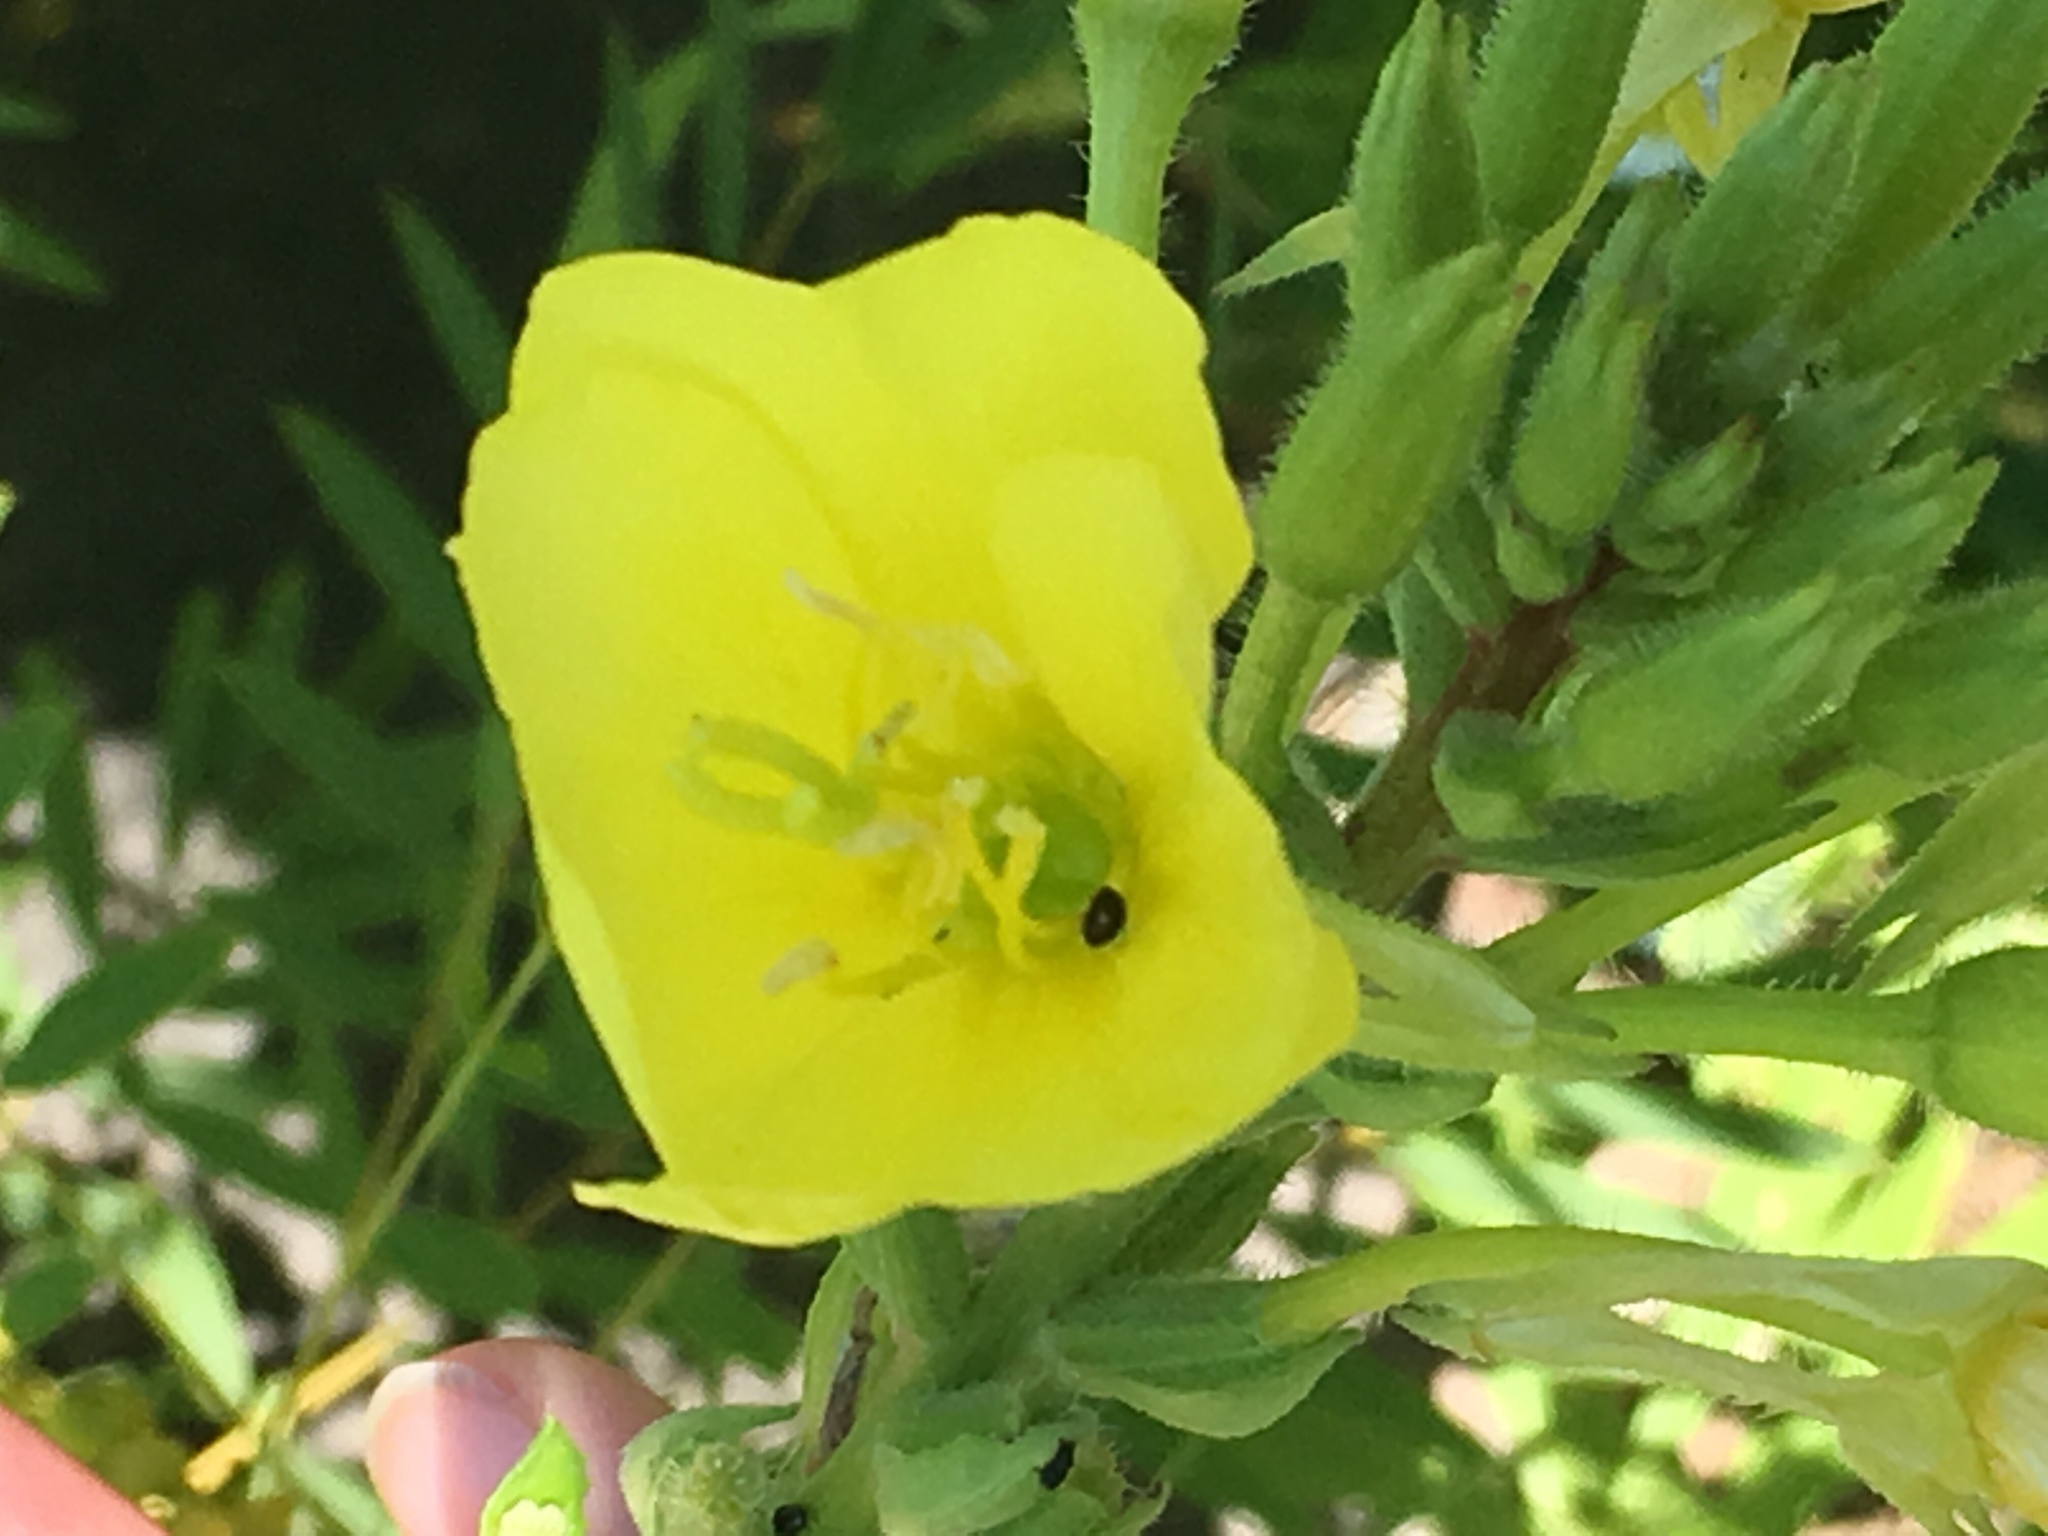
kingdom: Plantae
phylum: Tracheophyta
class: Magnoliopsida
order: Myrtales
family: Onagraceae
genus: Oenothera
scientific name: Oenothera biennis
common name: Common evening-primrose
